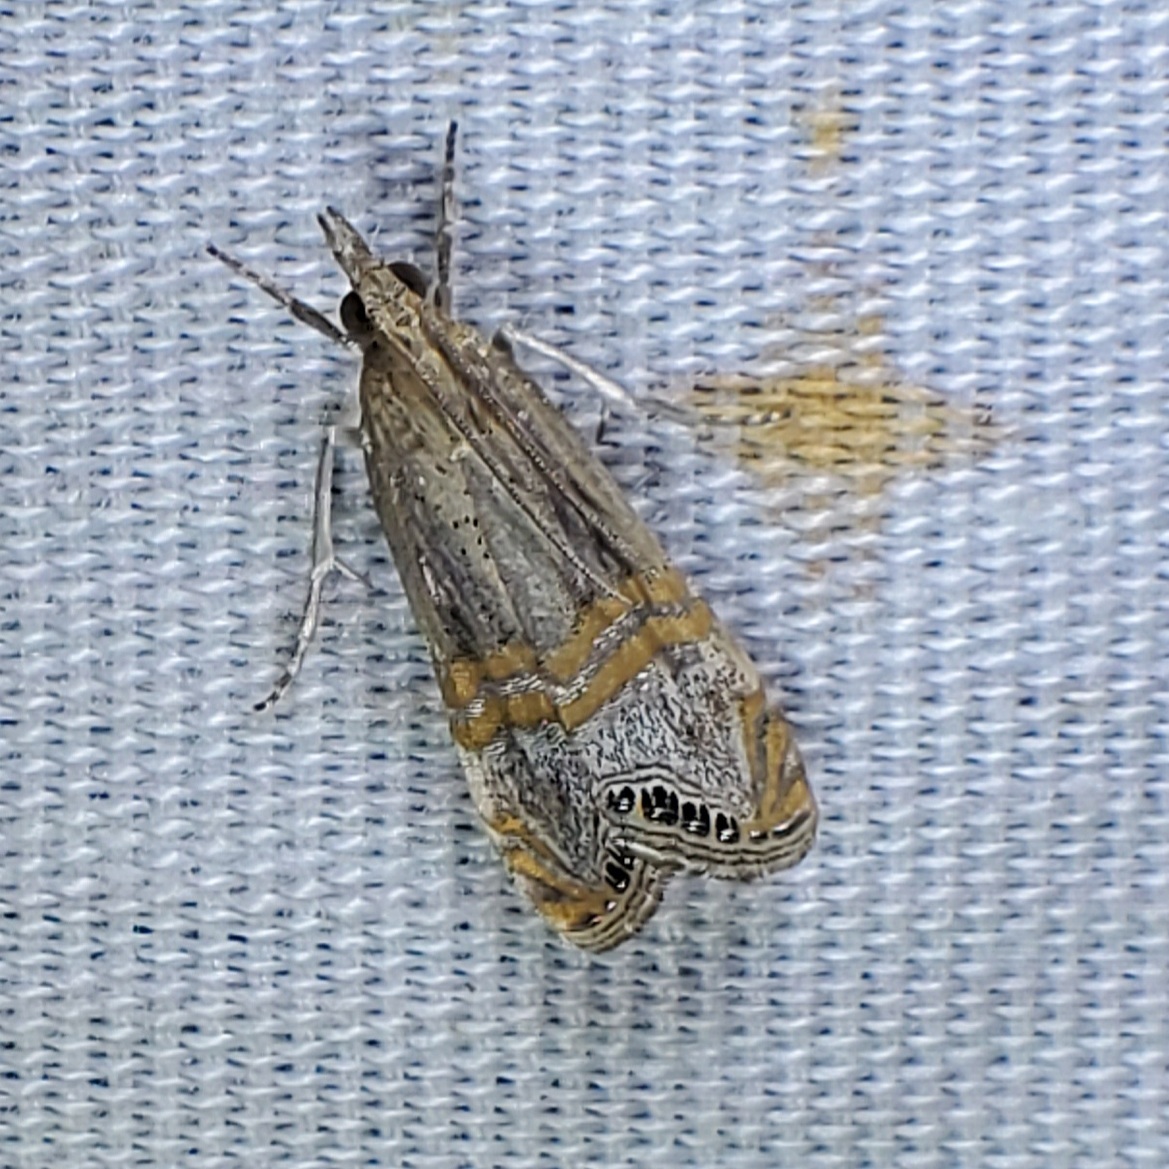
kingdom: Animalia
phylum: Arthropoda
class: Insecta
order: Lepidoptera
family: Crambidae
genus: Euchromius
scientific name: Euchromius ocellea
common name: Necklace veneer moth
